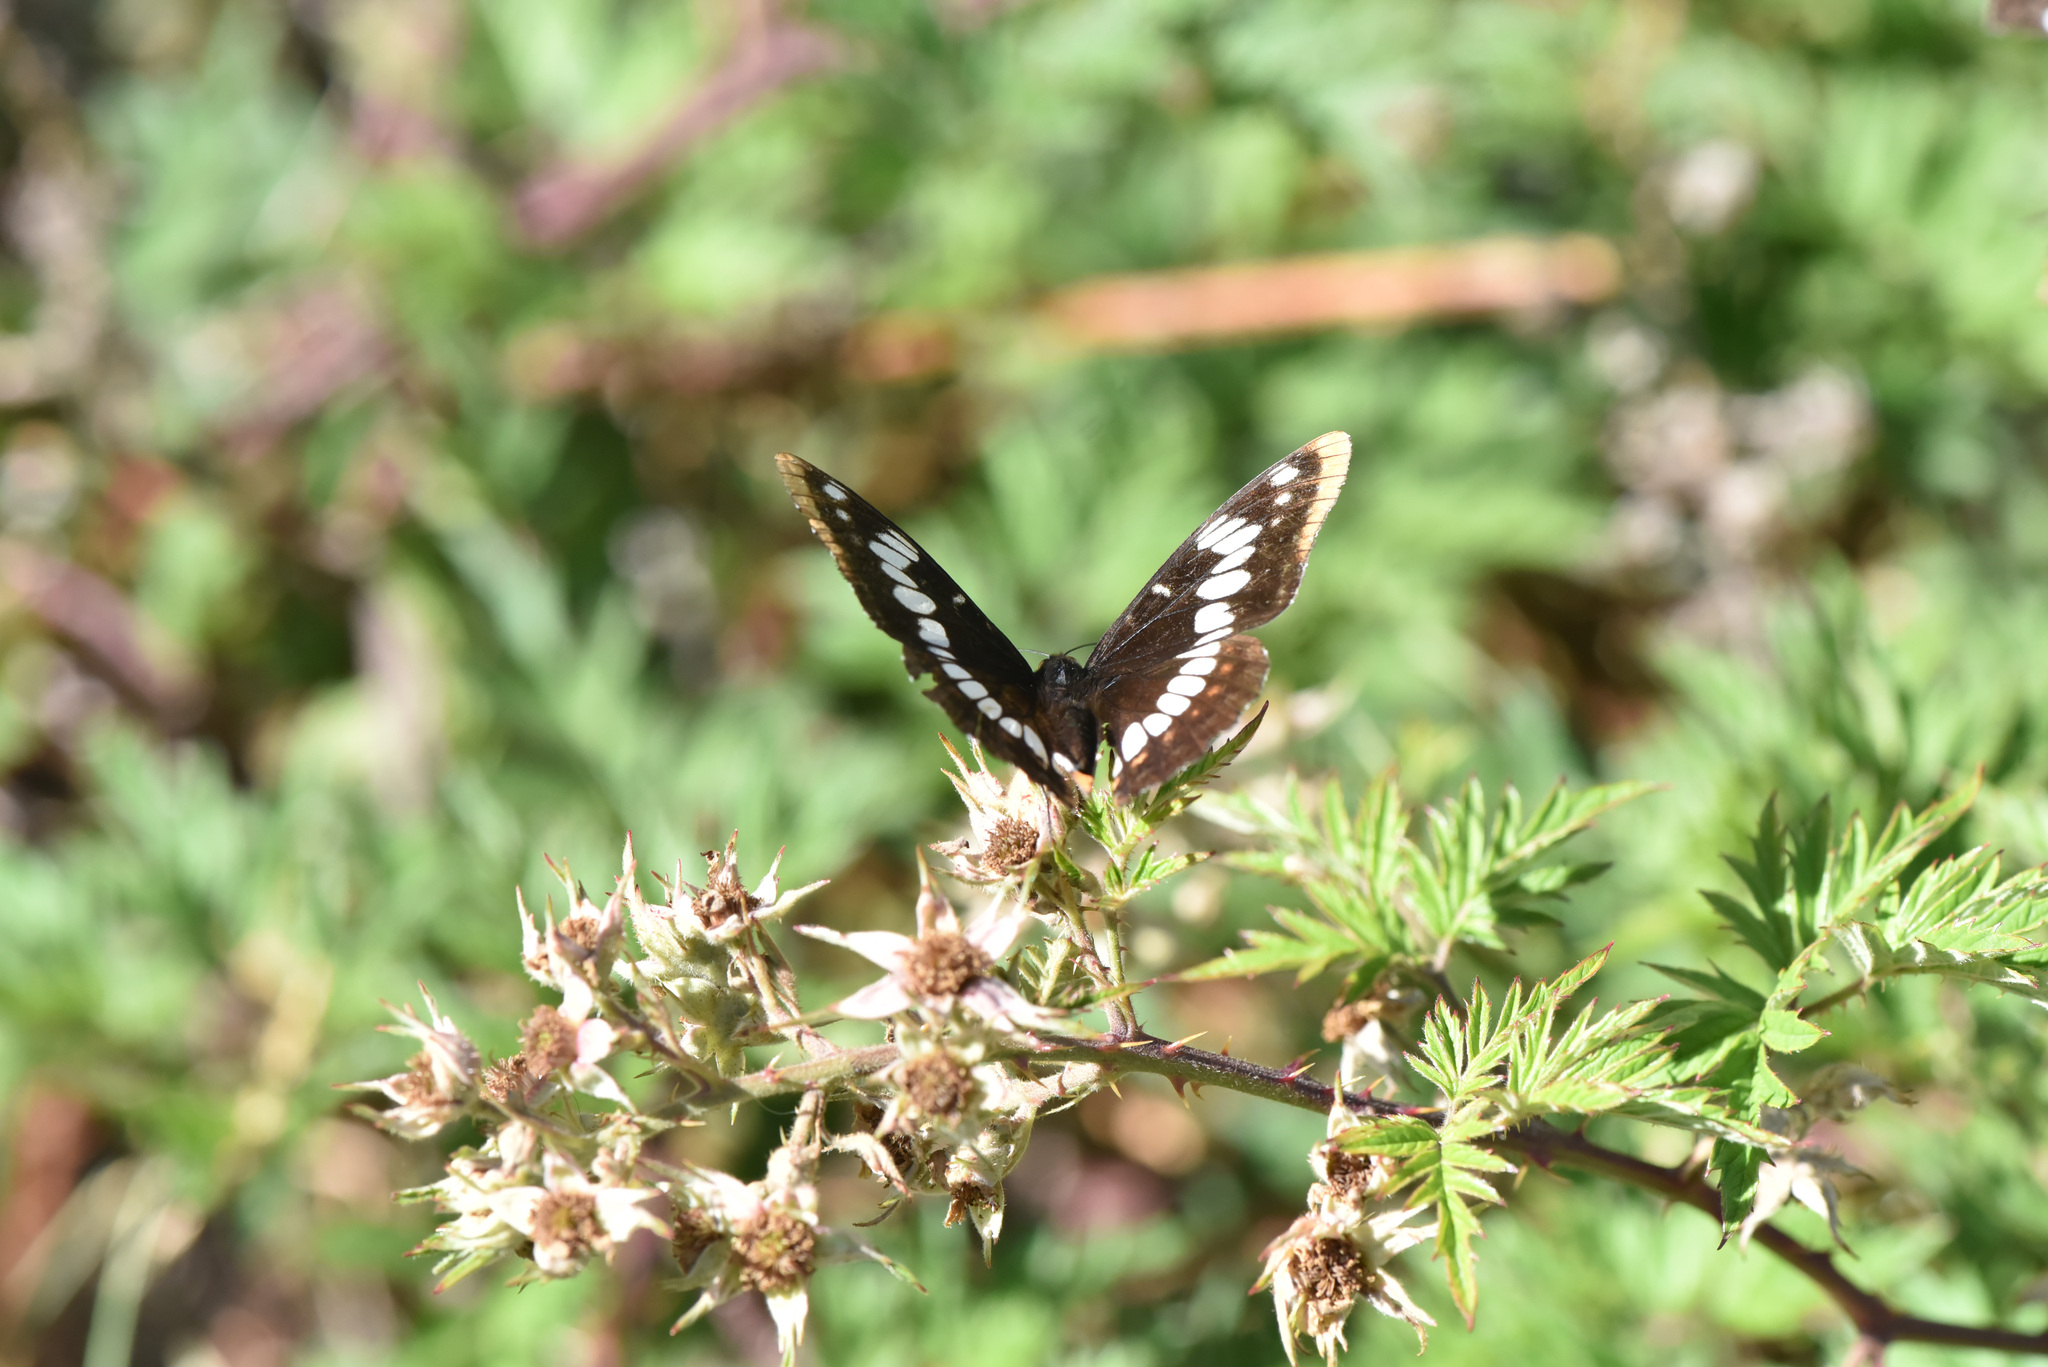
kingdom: Animalia
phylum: Arthropoda
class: Insecta
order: Lepidoptera
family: Nymphalidae
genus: Limenitis
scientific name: Limenitis lorquini
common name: Lorquin's admiral
